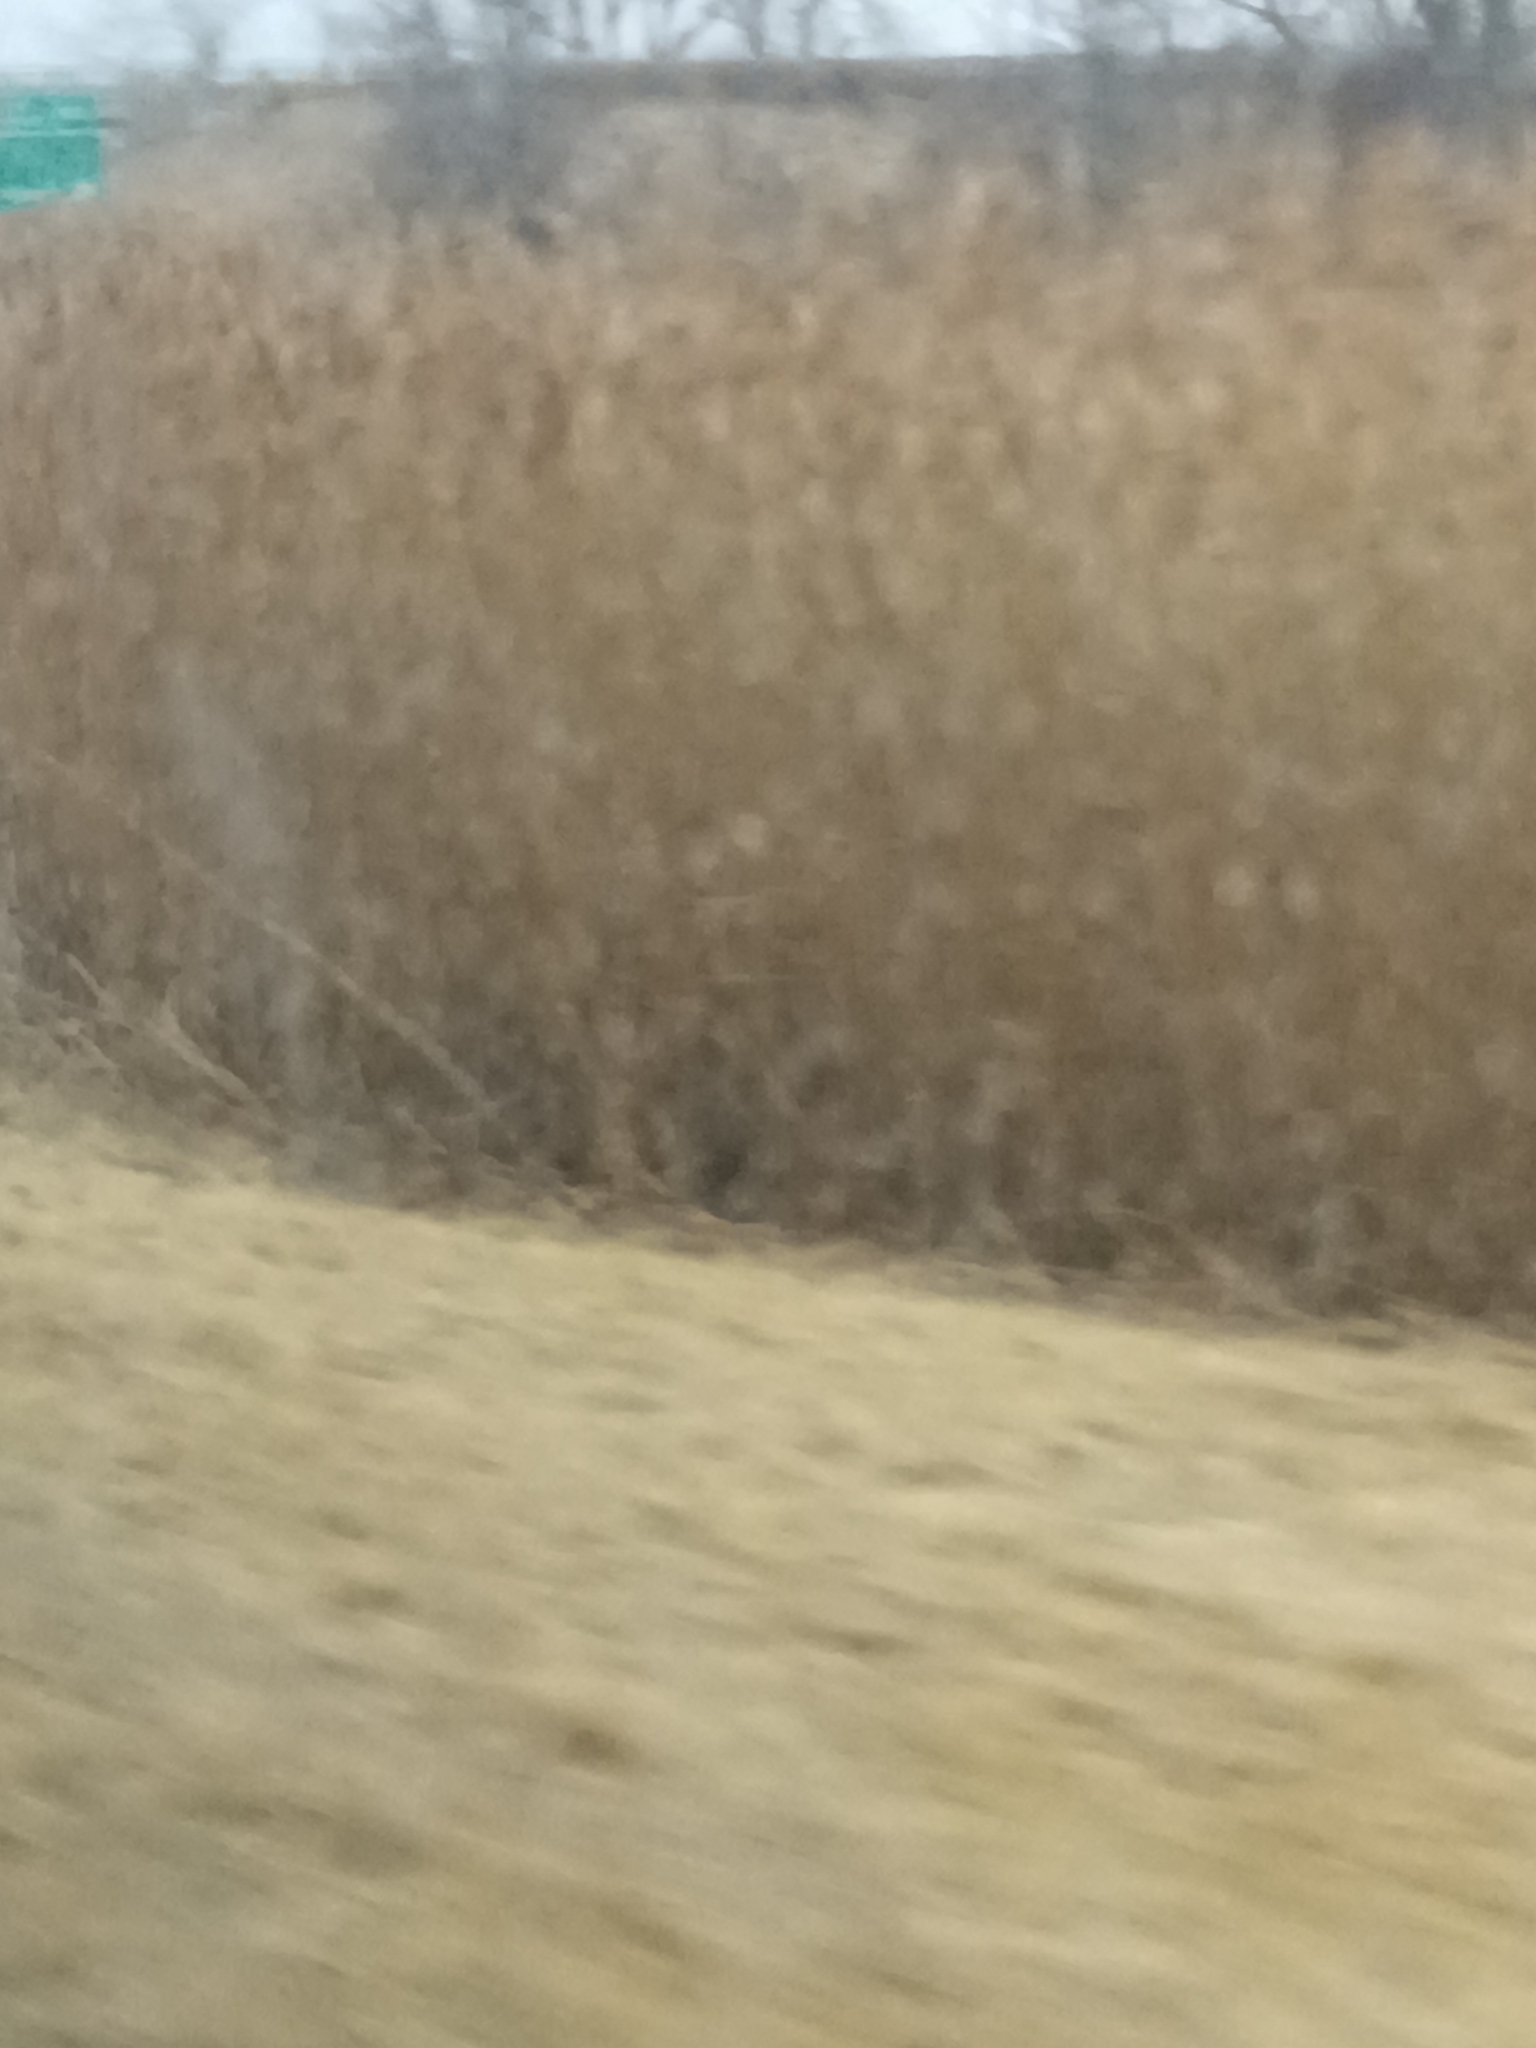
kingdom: Plantae
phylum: Tracheophyta
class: Liliopsida
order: Poales
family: Poaceae
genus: Phragmites
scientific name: Phragmites australis
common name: Common reed
